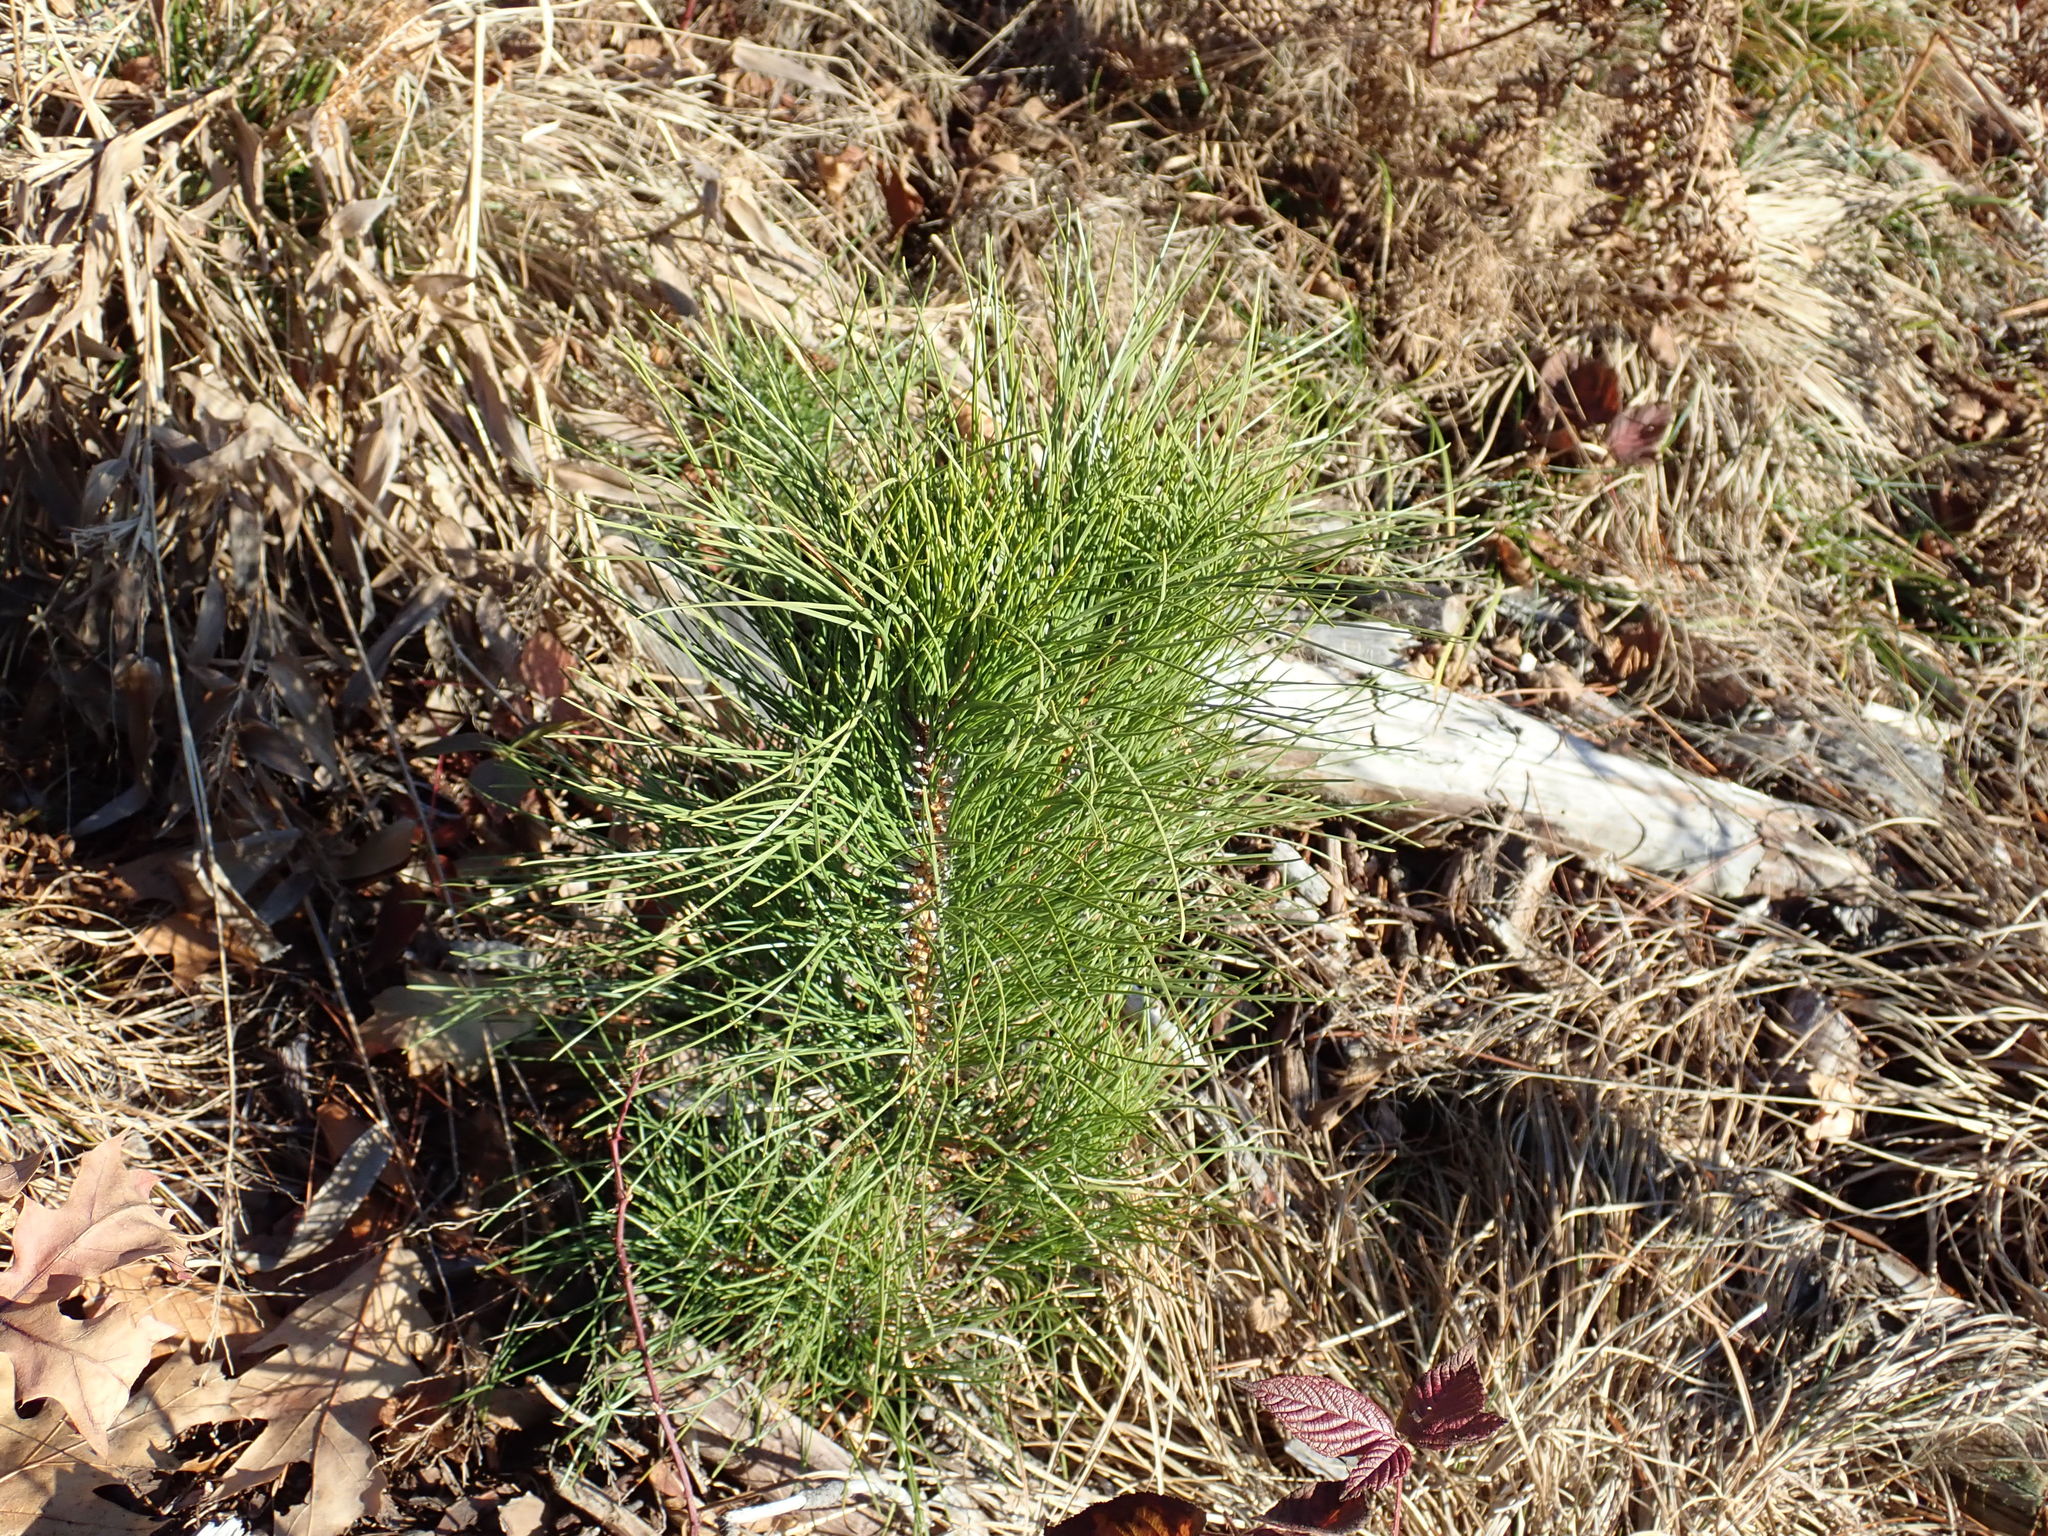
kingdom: Plantae
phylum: Tracheophyta
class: Pinopsida
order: Pinales
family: Pinaceae
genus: Pinus
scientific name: Pinus resinosa
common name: Norway pine
